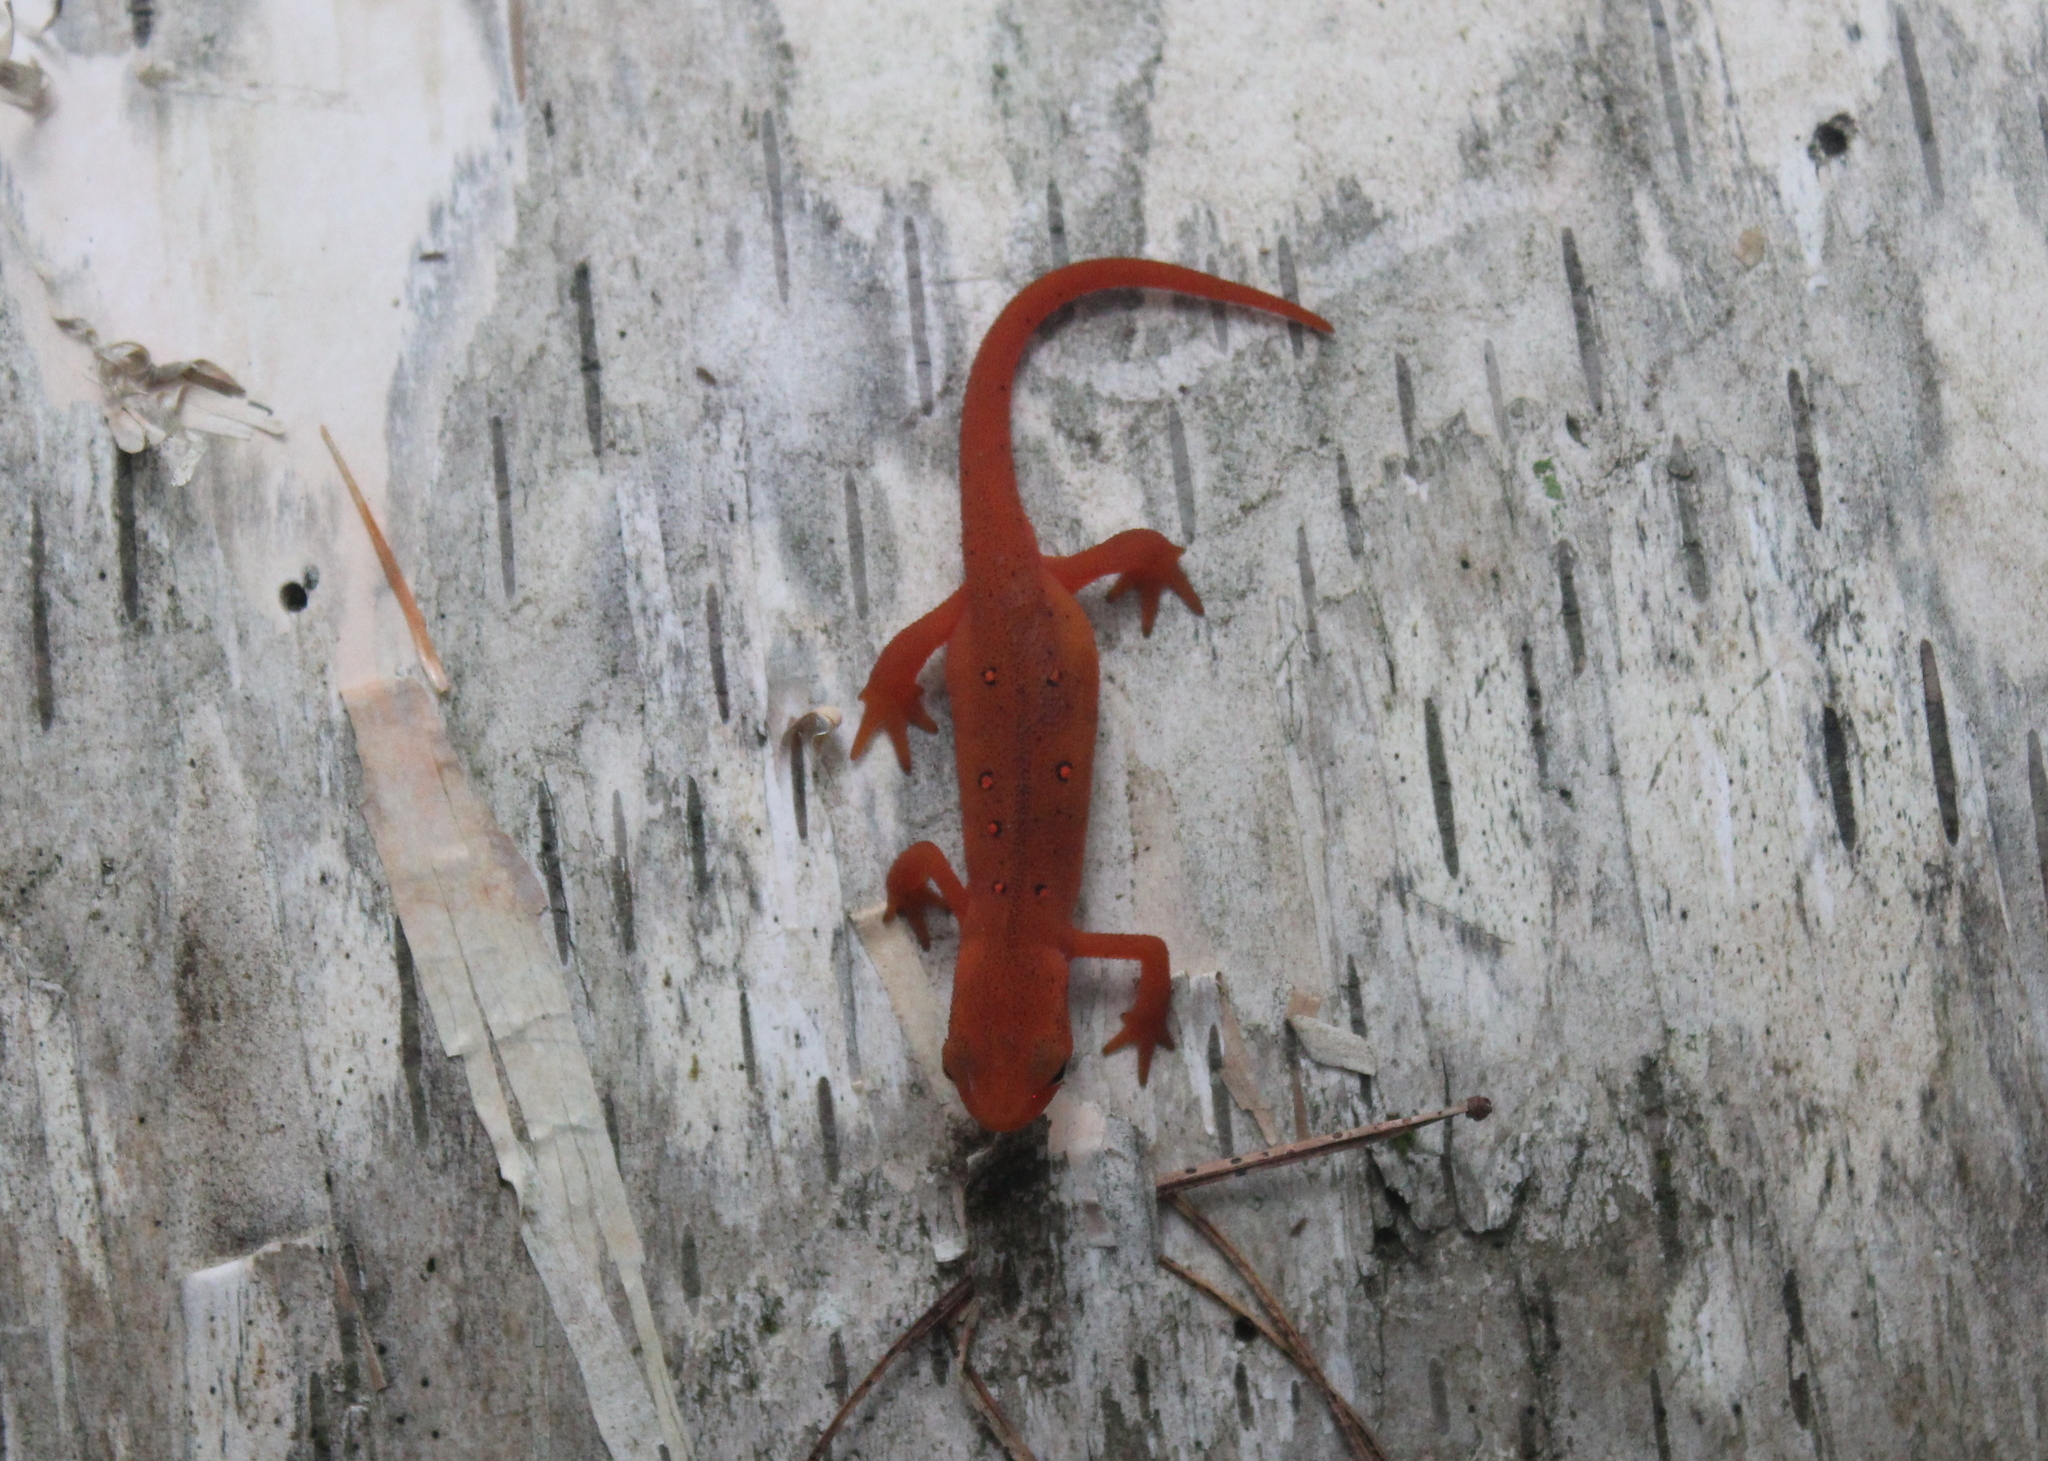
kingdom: Animalia
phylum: Chordata
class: Amphibia
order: Caudata
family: Salamandridae
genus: Notophthalmus
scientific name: Notophthalmus viridescens
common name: Eastern newt
